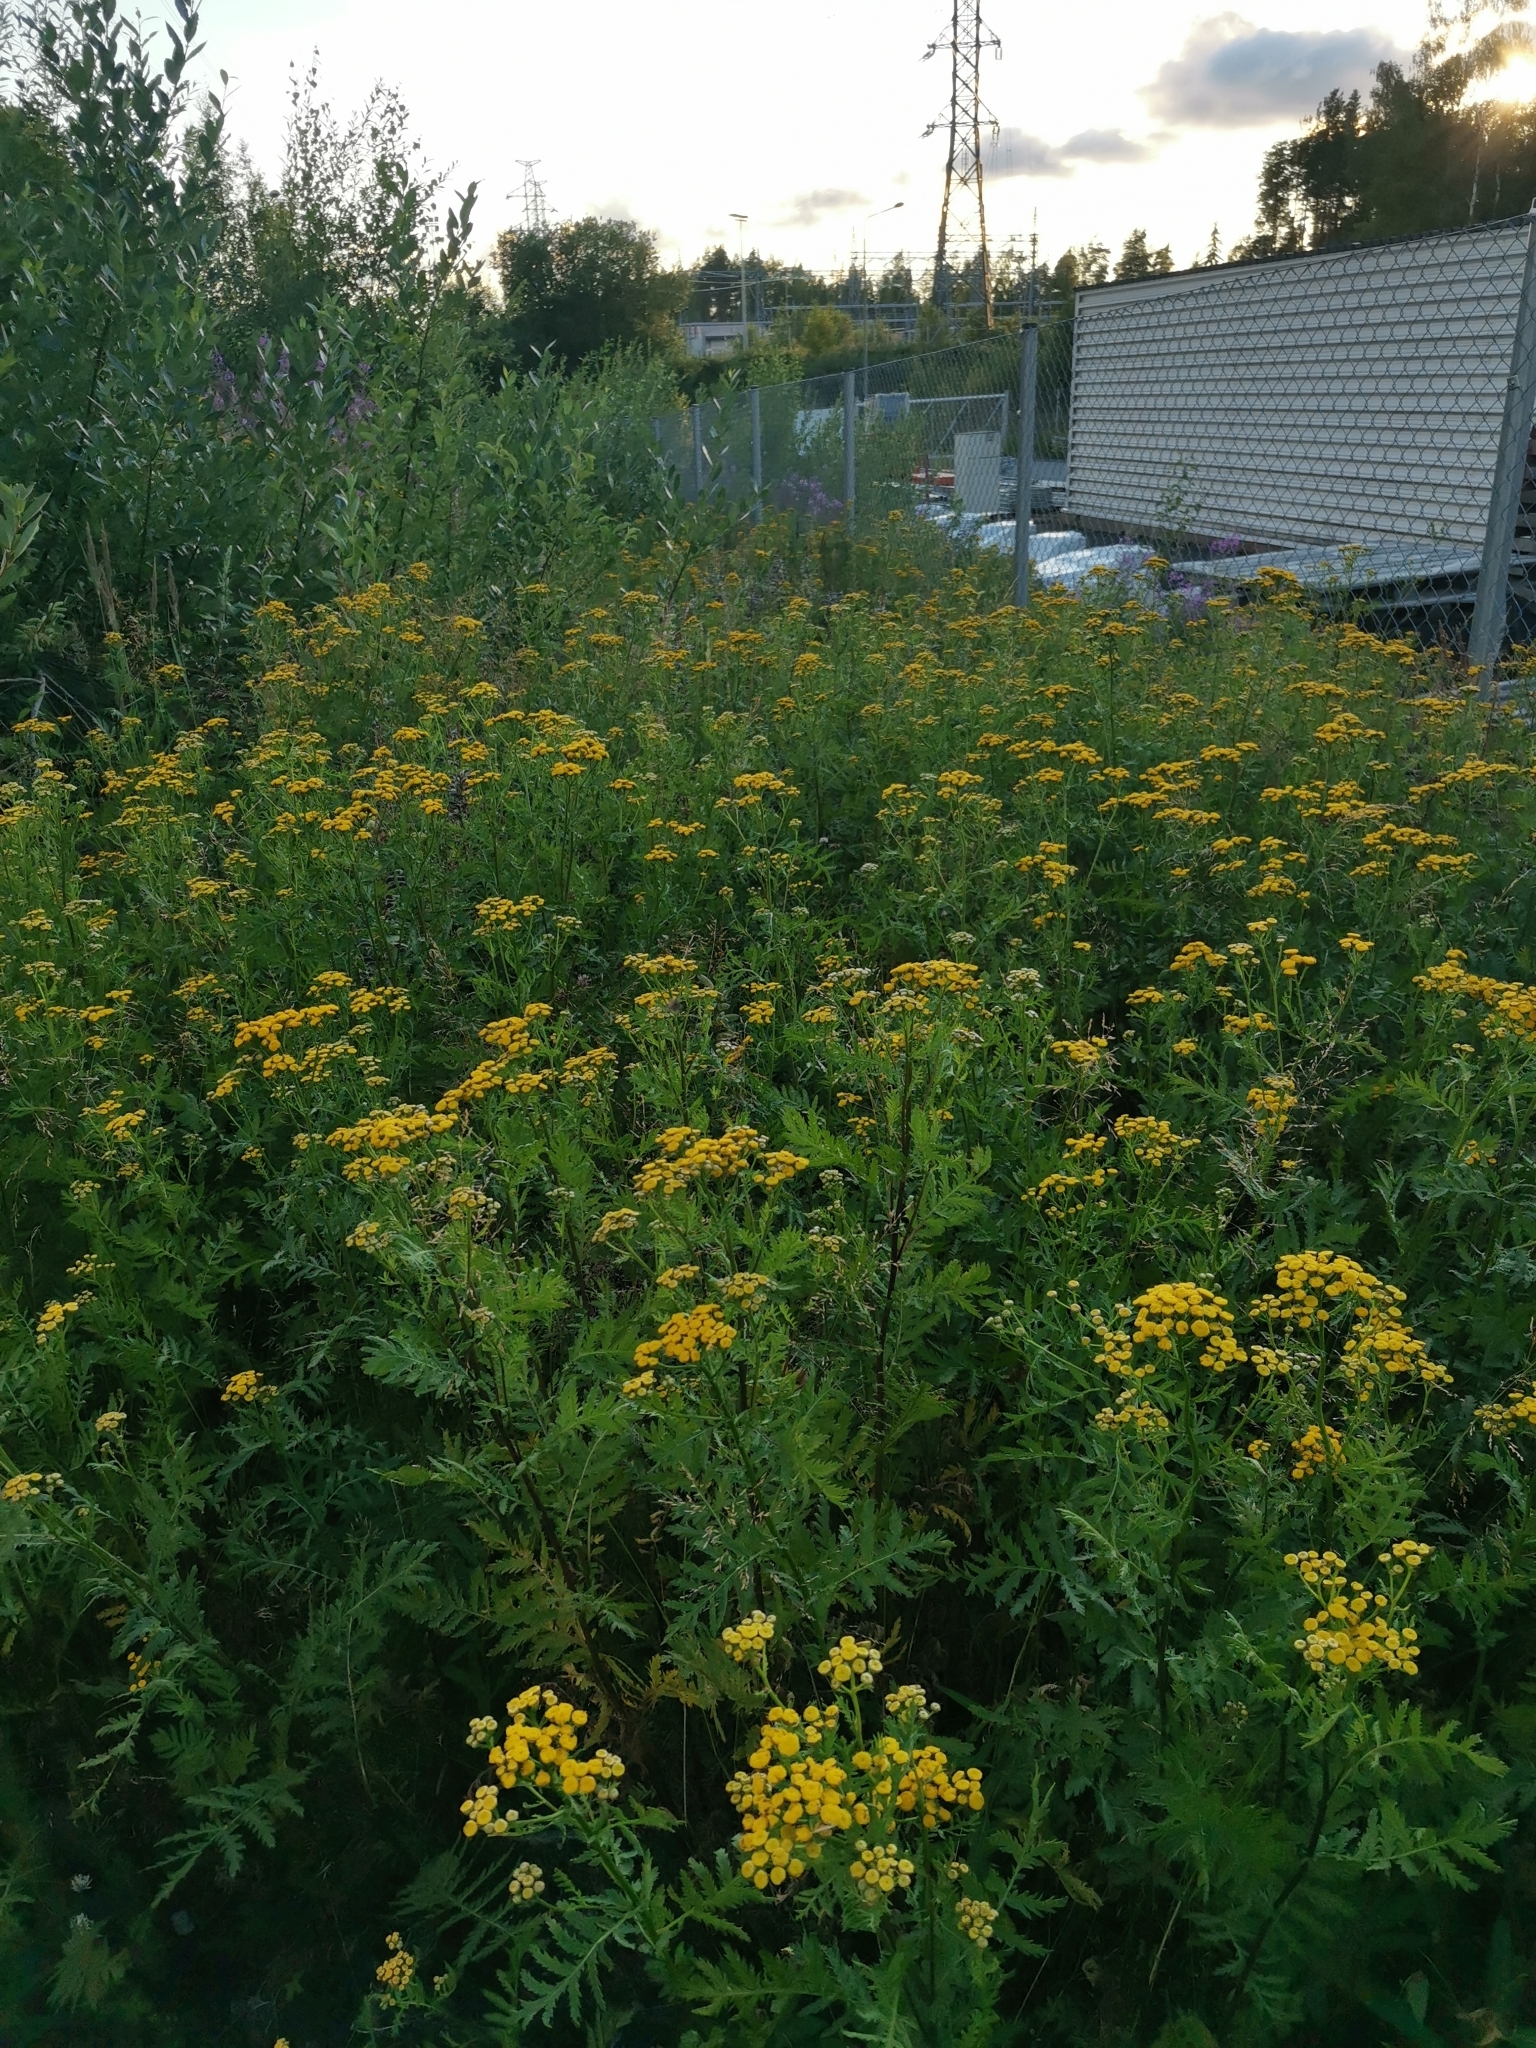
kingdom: Plantae
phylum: Tracheophyta
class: Magnoliopsida
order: Asterales
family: Asteraceae
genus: Tanacetum
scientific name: Tanacetum vulgare
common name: Common tansy
